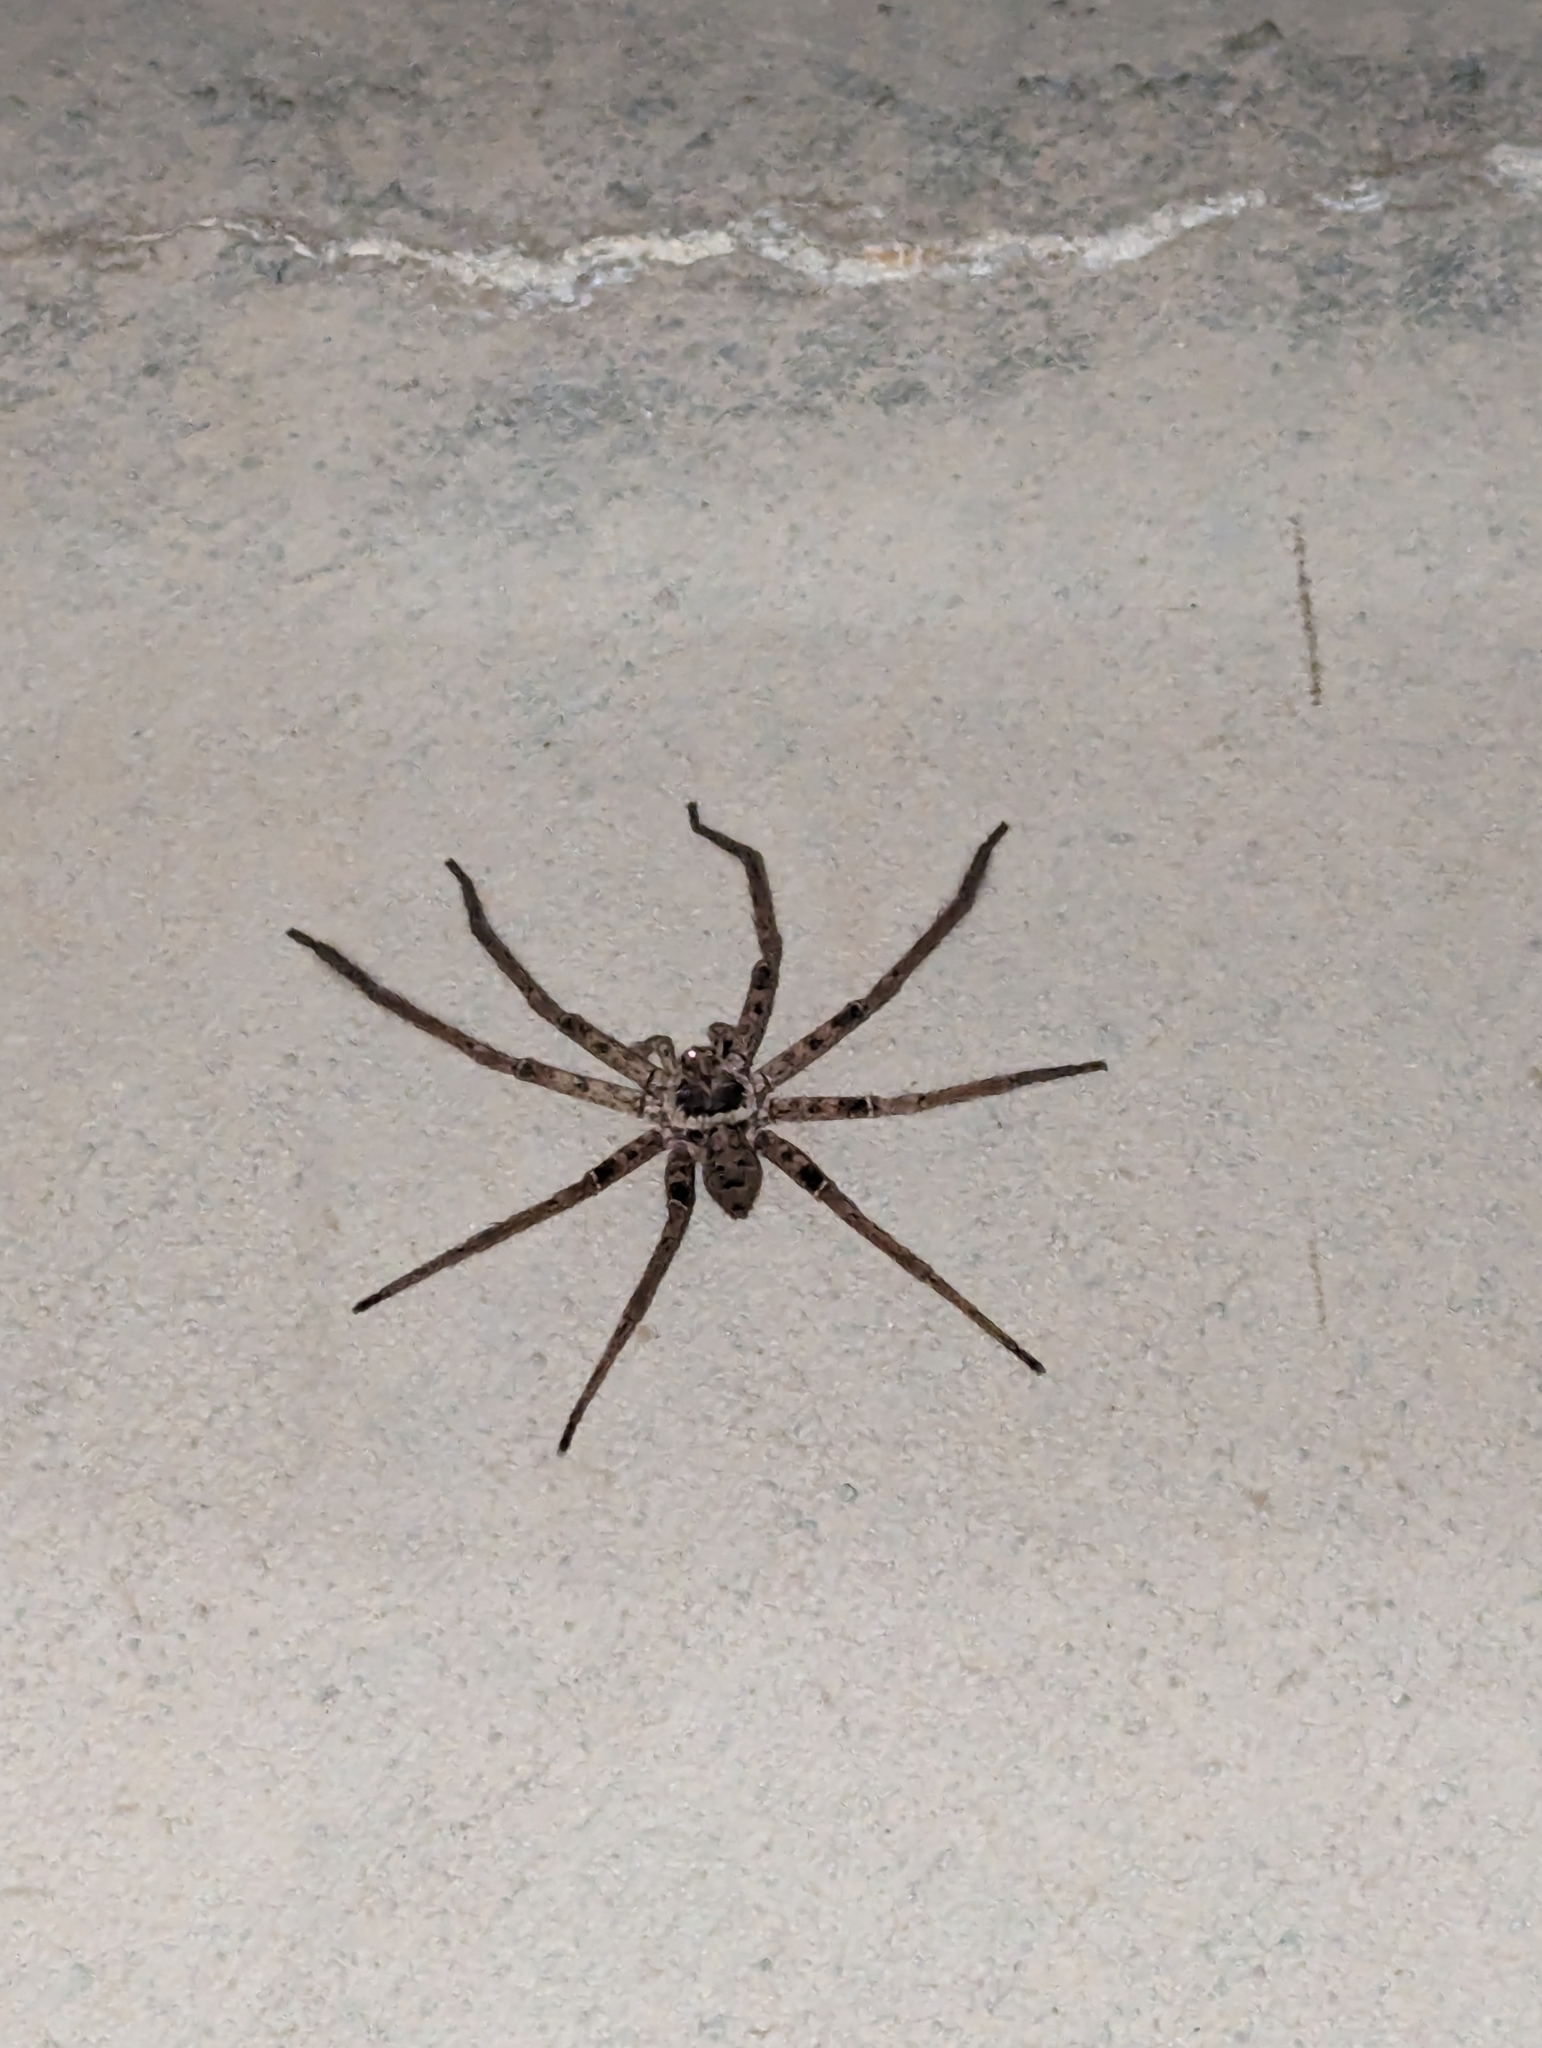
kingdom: Animalia
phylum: Arthropoda
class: Arachnida
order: Araneae
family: Sparassidae
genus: Heteropoda
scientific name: Heteropoda jugulans
